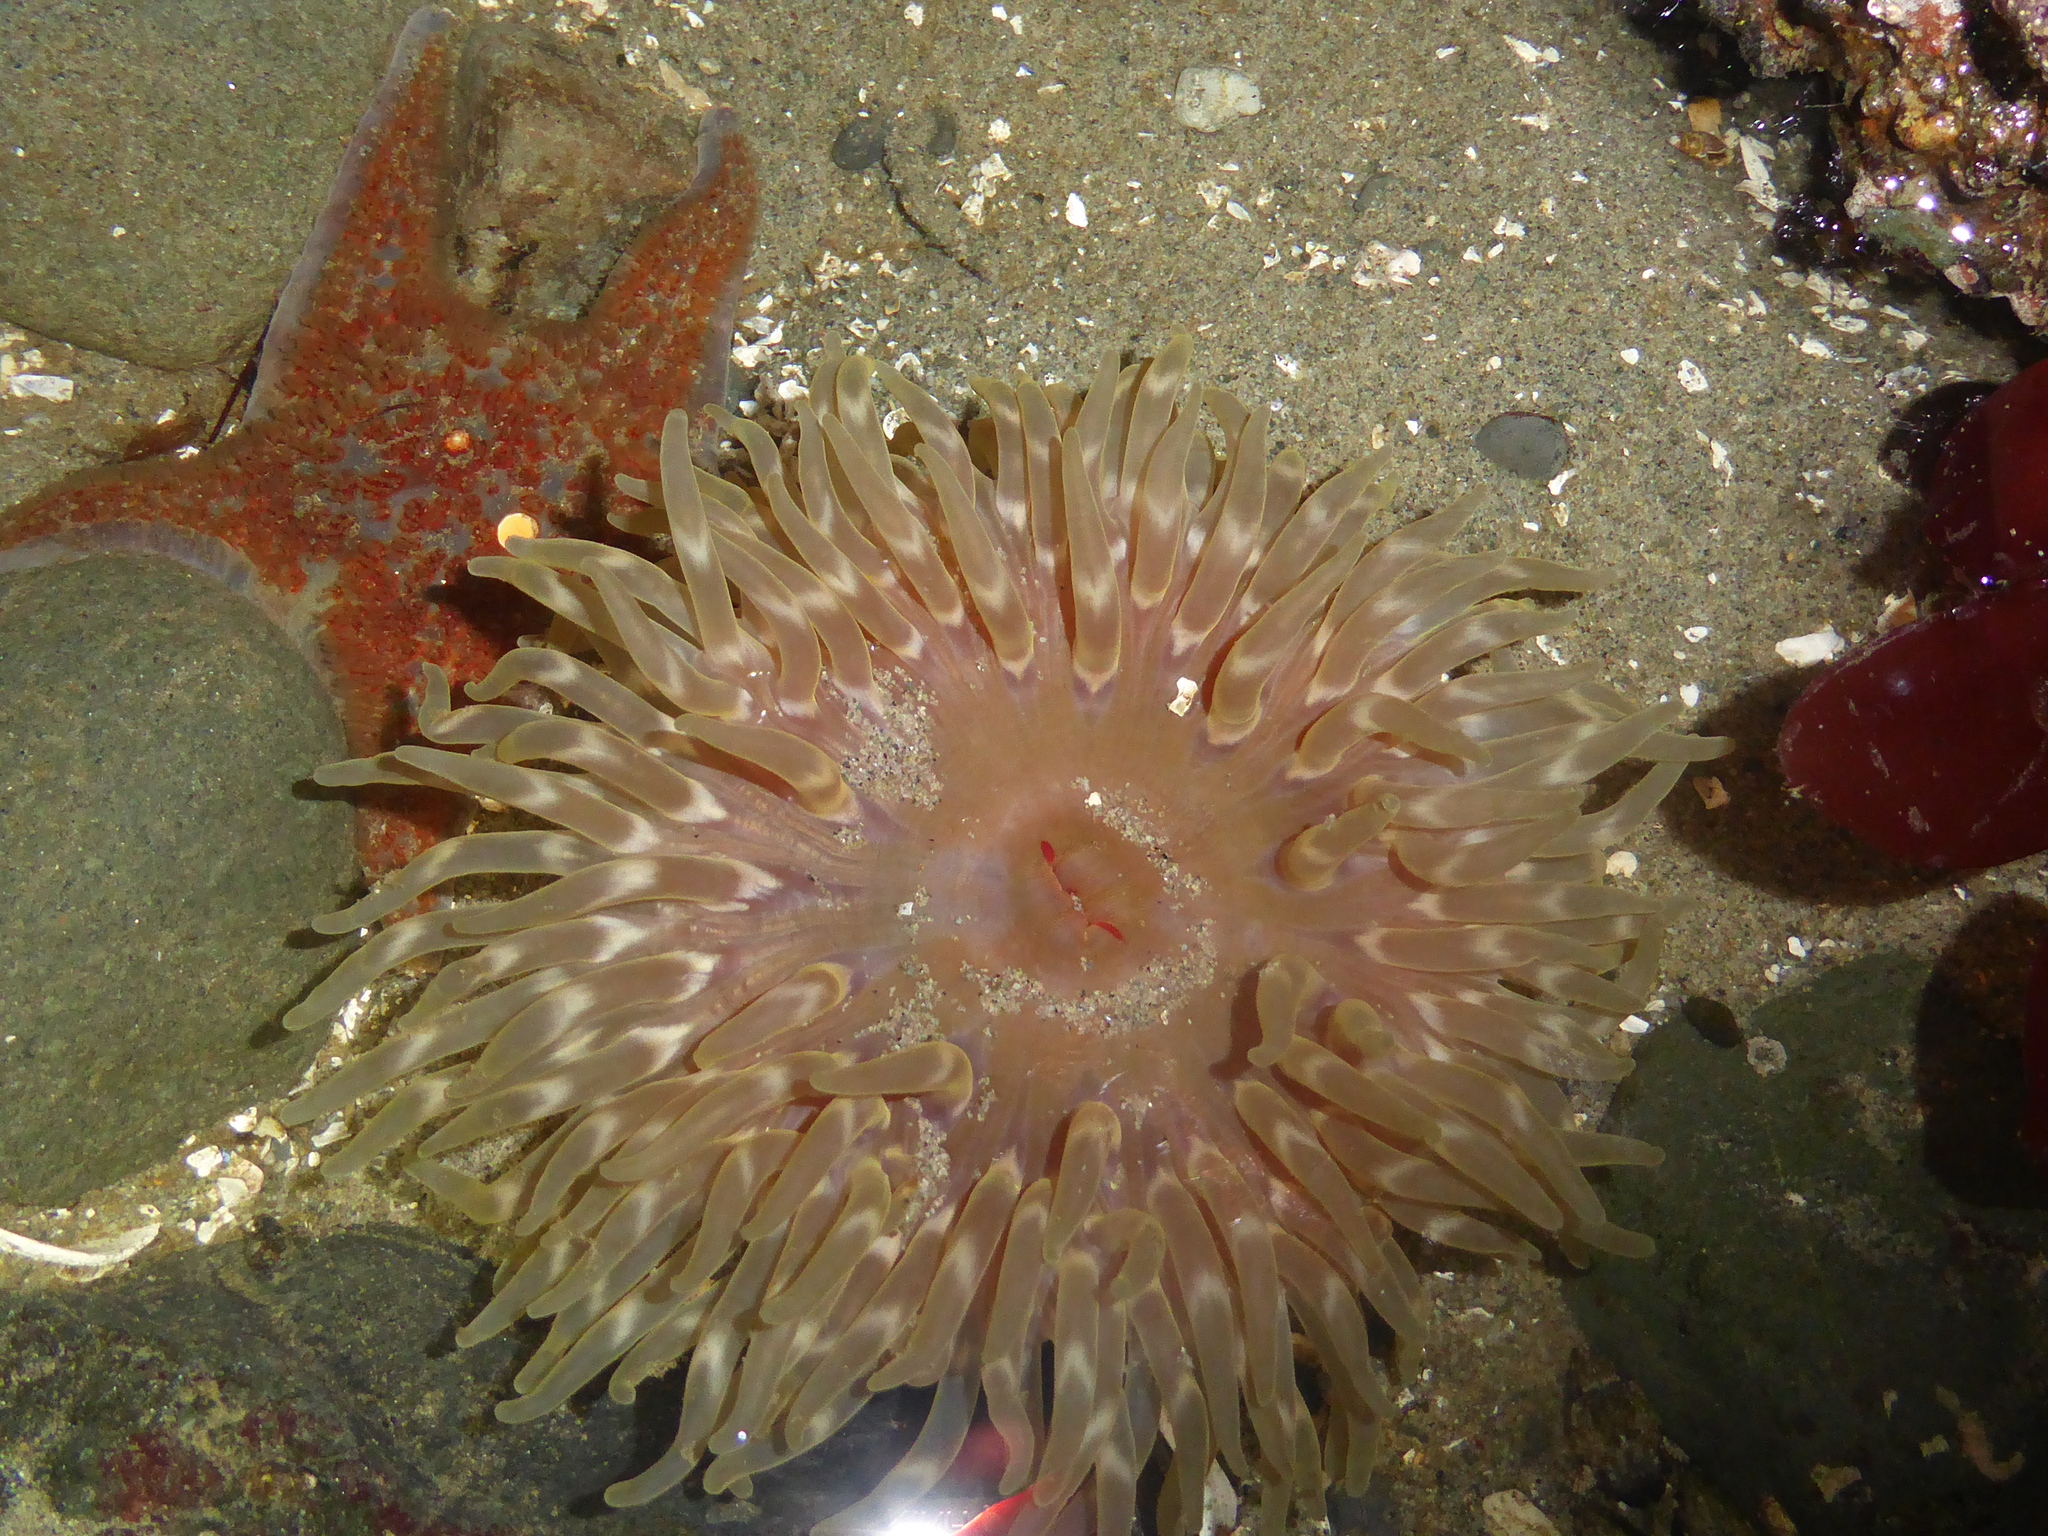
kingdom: Animalia
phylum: Cnidaria
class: Anthozoa
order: Actiniaria
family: Actiniidae
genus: Urticina
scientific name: Urticina clandestina
